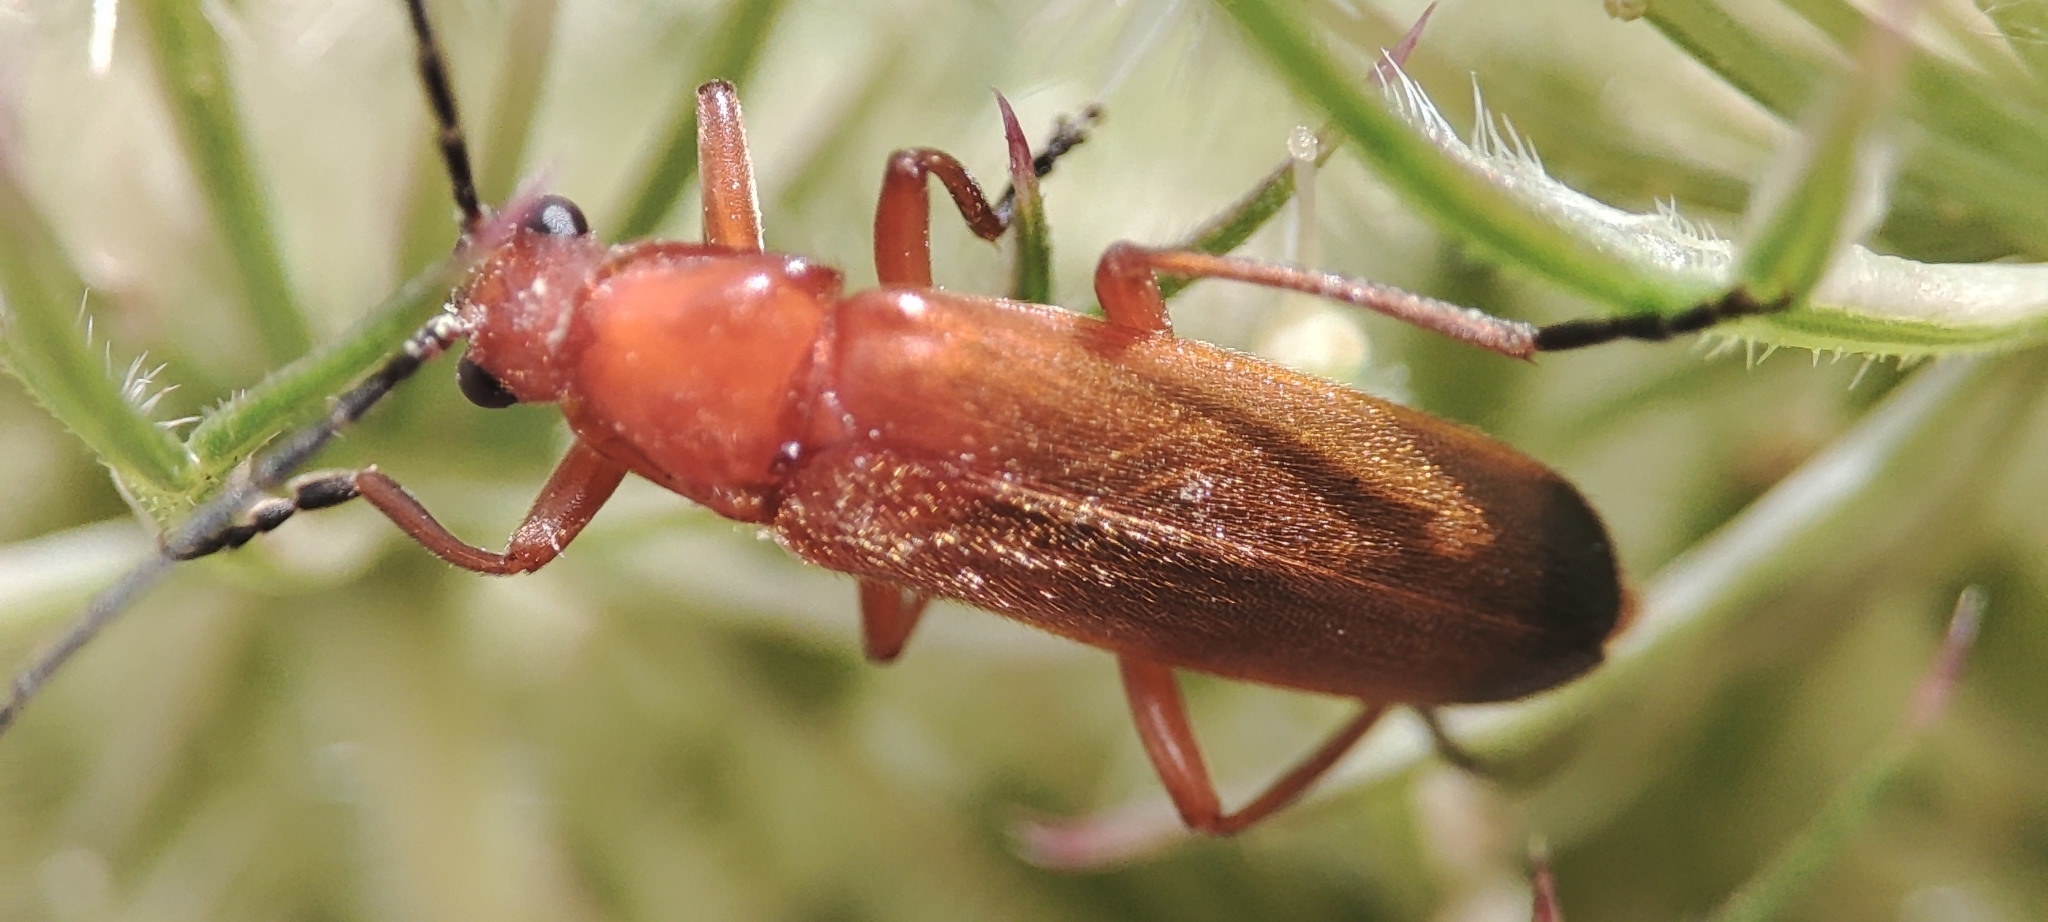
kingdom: Animalia
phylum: Arthropoda
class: Insecta
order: Coleoptera
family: Cantharidae
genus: Rhagonycha
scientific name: Rhagonycha fulva
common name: Common red soldier beetle
